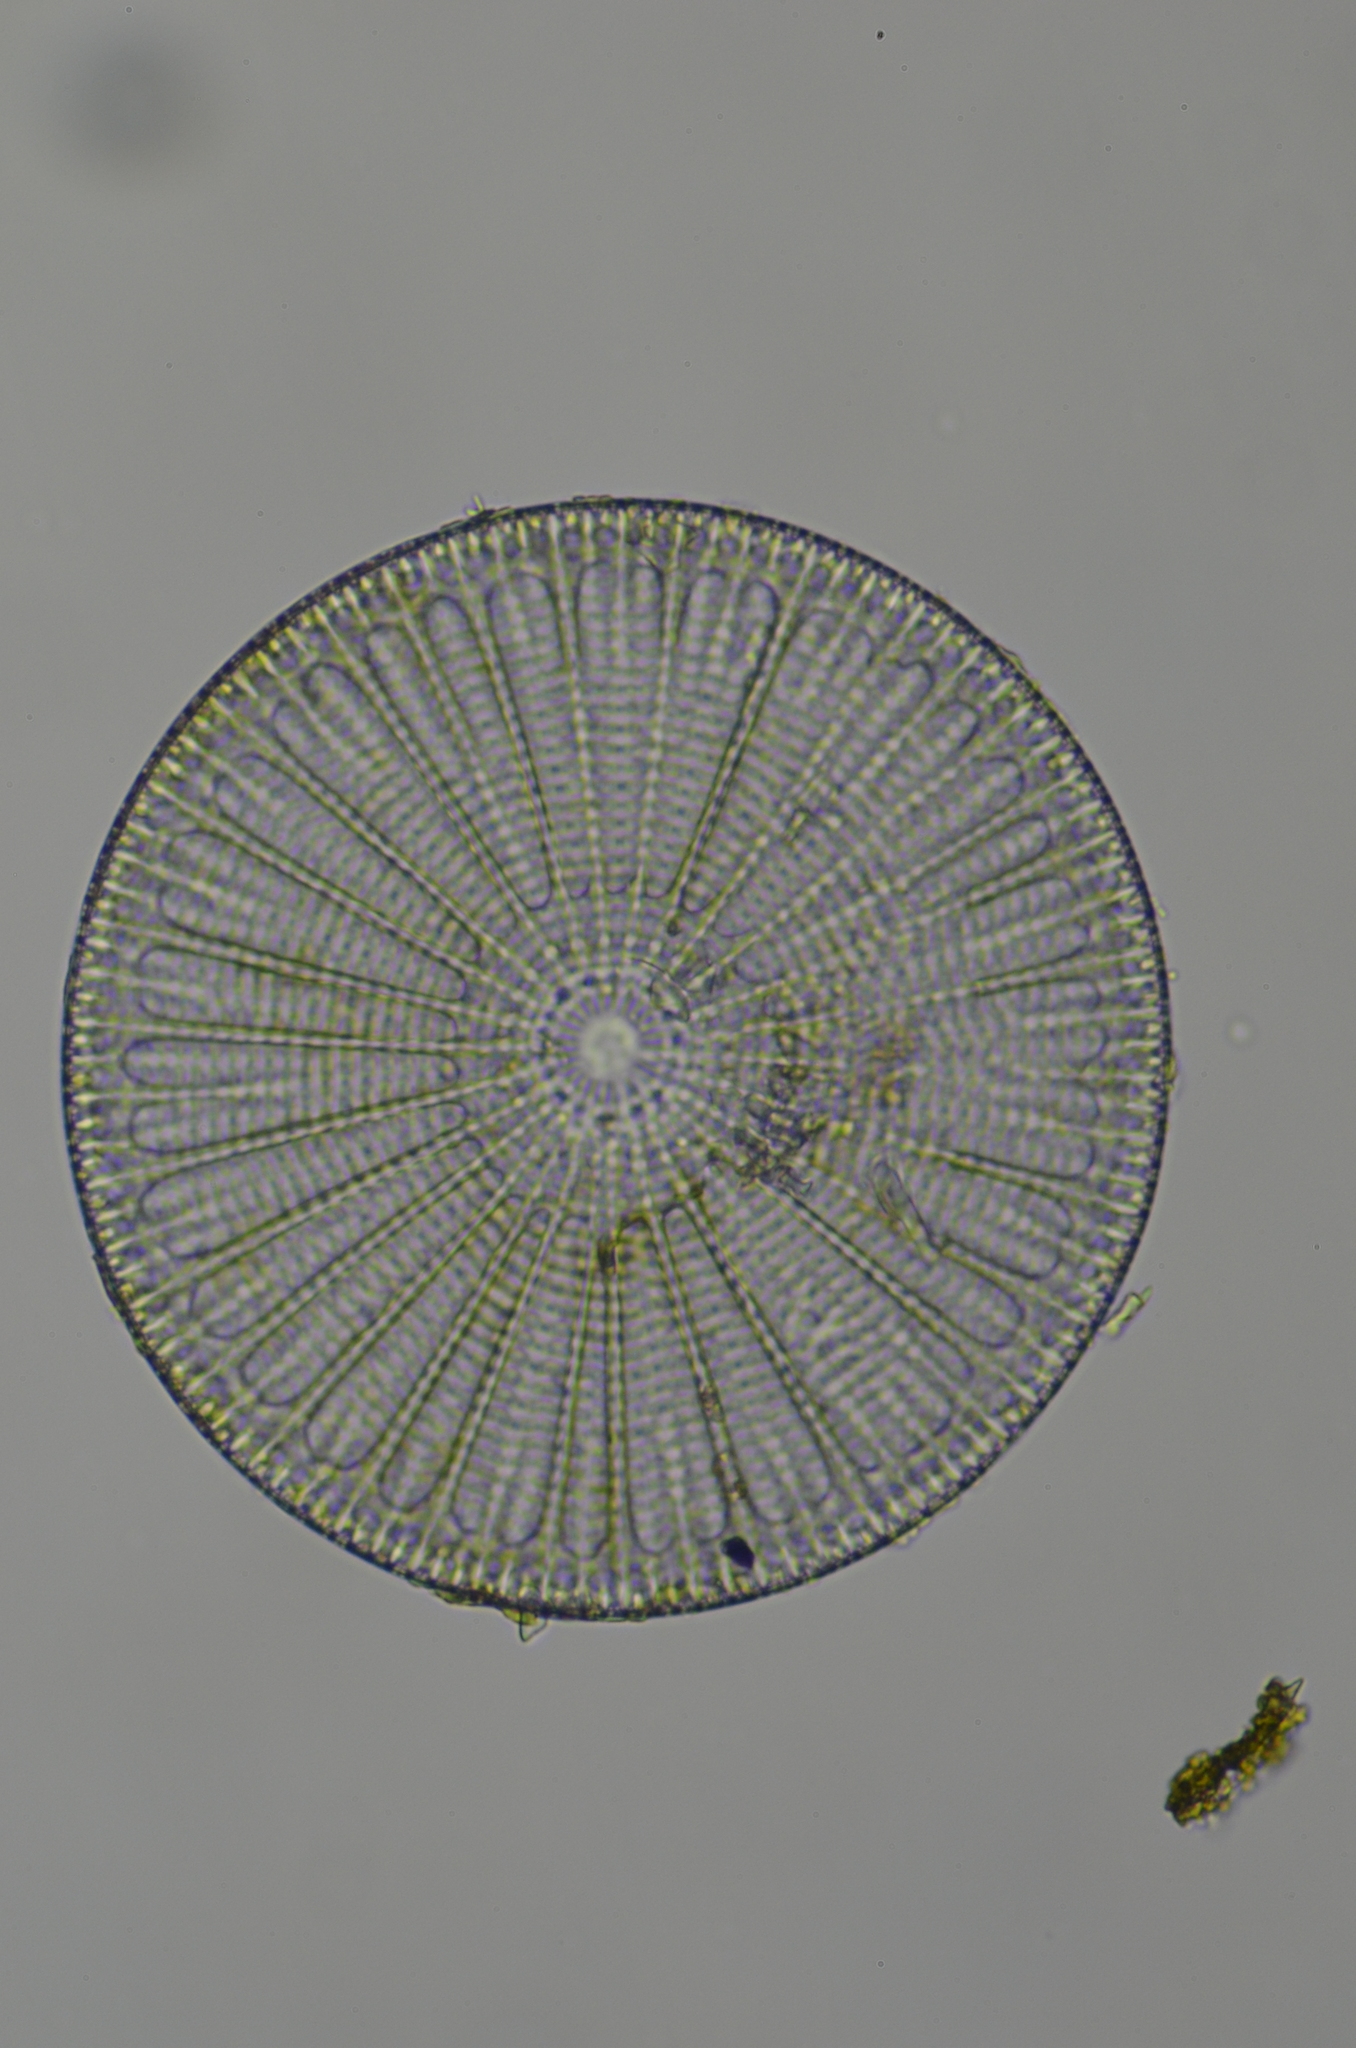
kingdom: Chromista
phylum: Ochrophyta
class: Bacillariophyceae
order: Arachnoidiscales
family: Arachnoidiscaceae
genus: Arachnoidiscus
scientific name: Arachnoidiscus ehrenbergii
